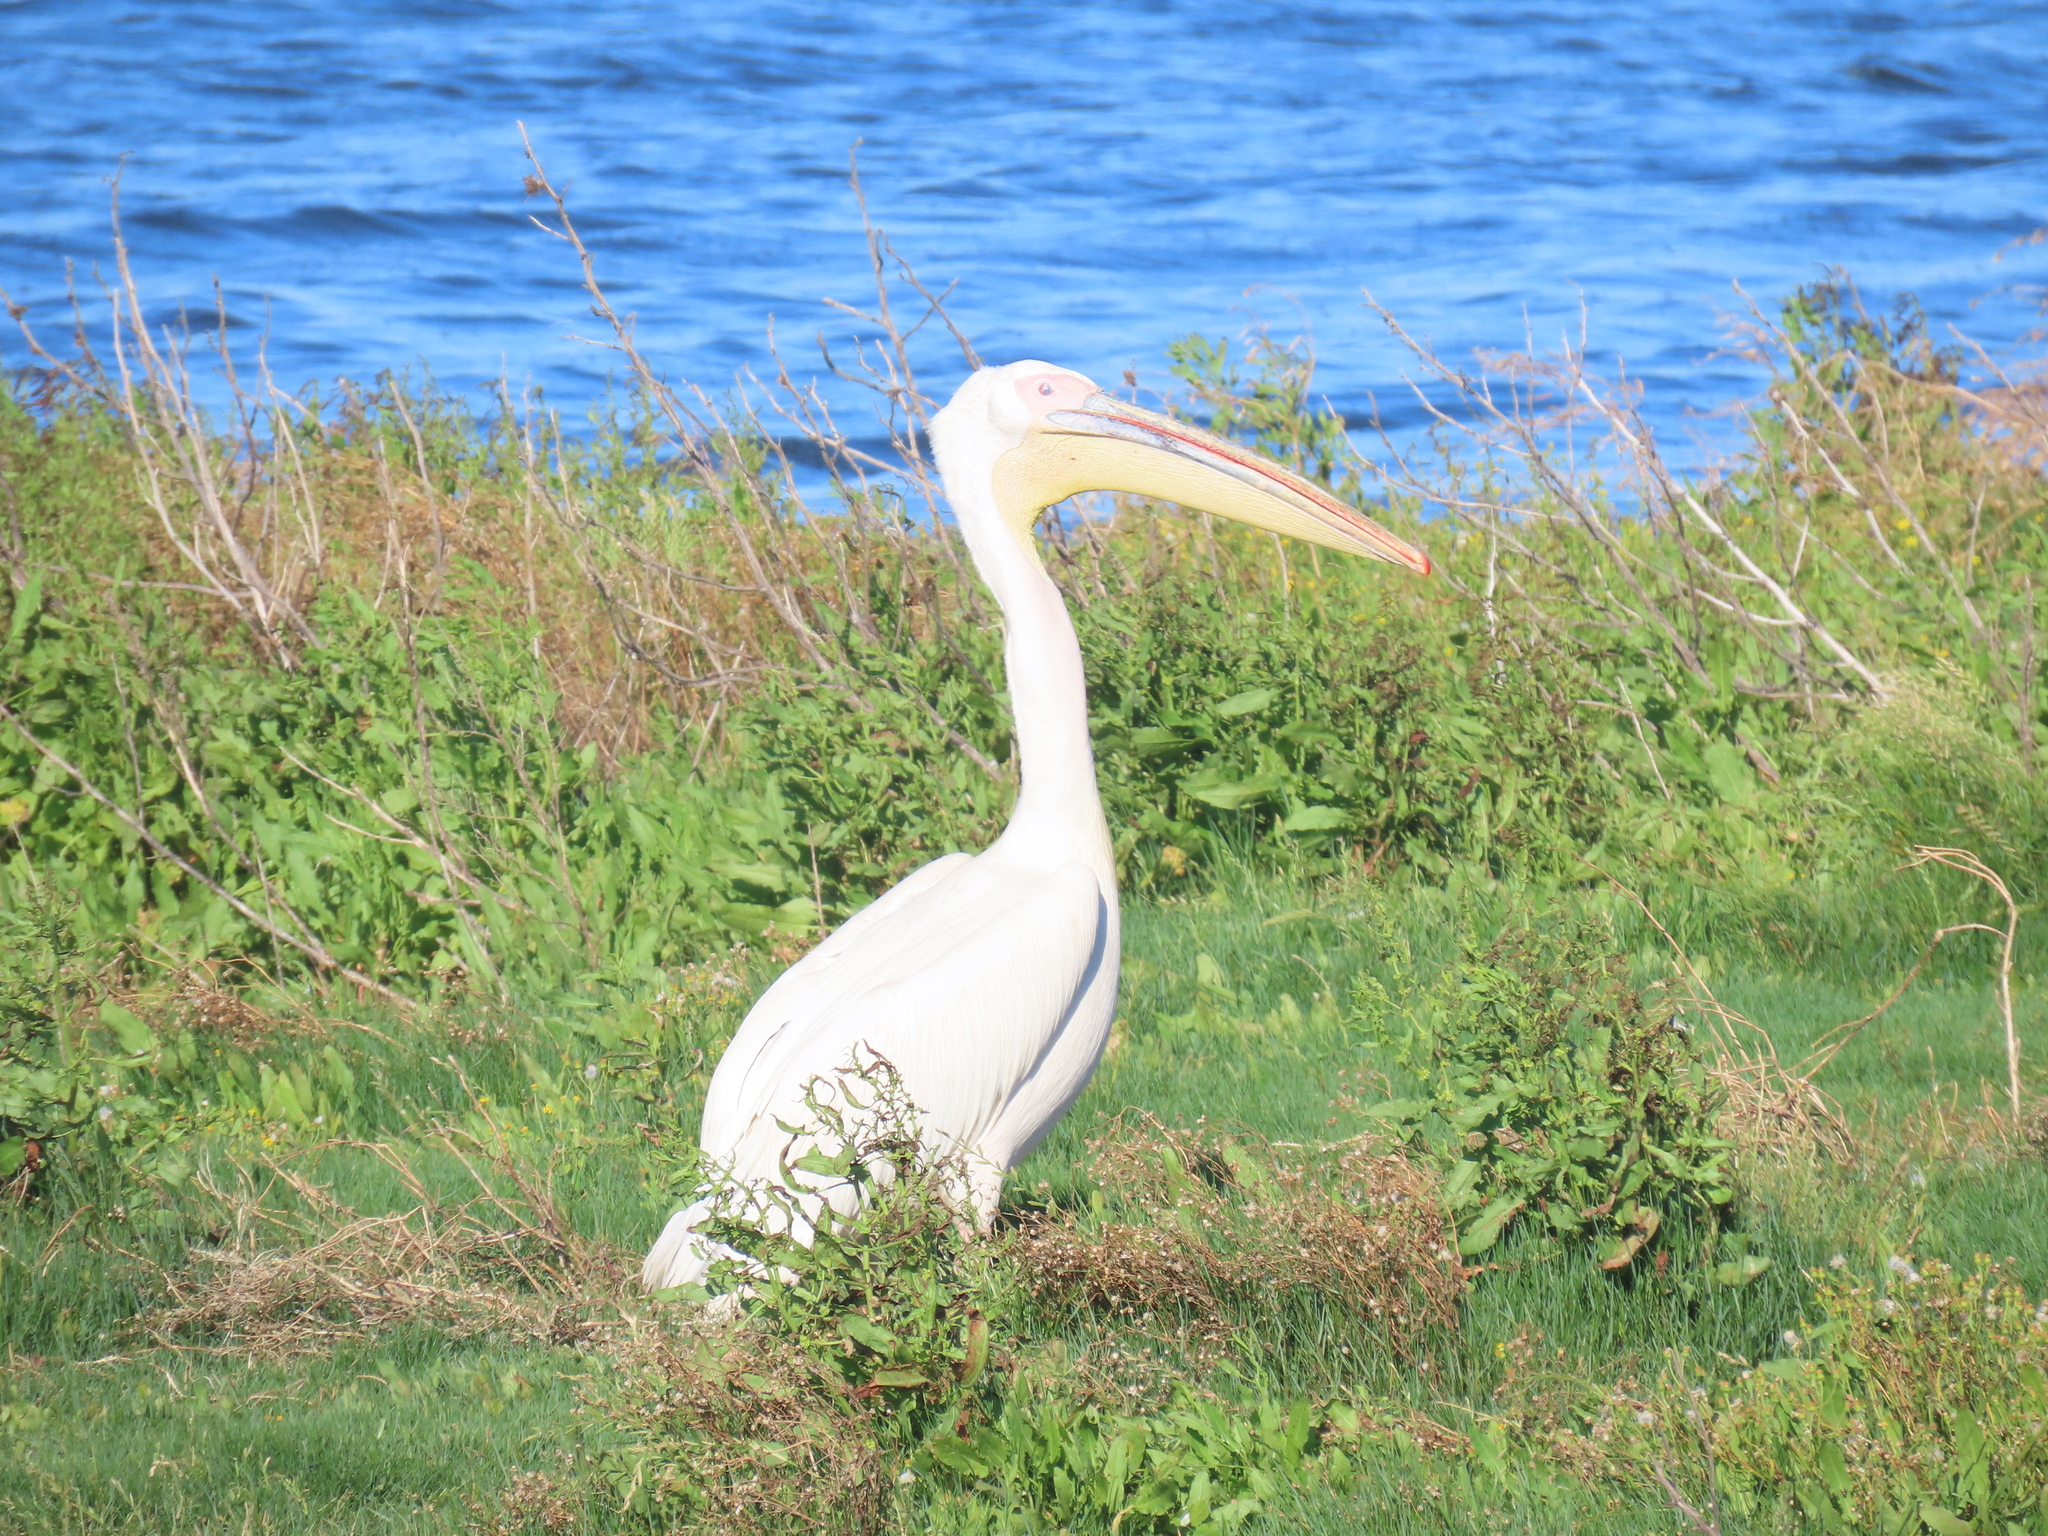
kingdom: Animalia
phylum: Chordata
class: Aves
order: Pelecaniformes
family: Pelecanidae
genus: Pelecanus
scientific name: Pelecanus onocrotalus
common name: Great white pelican
